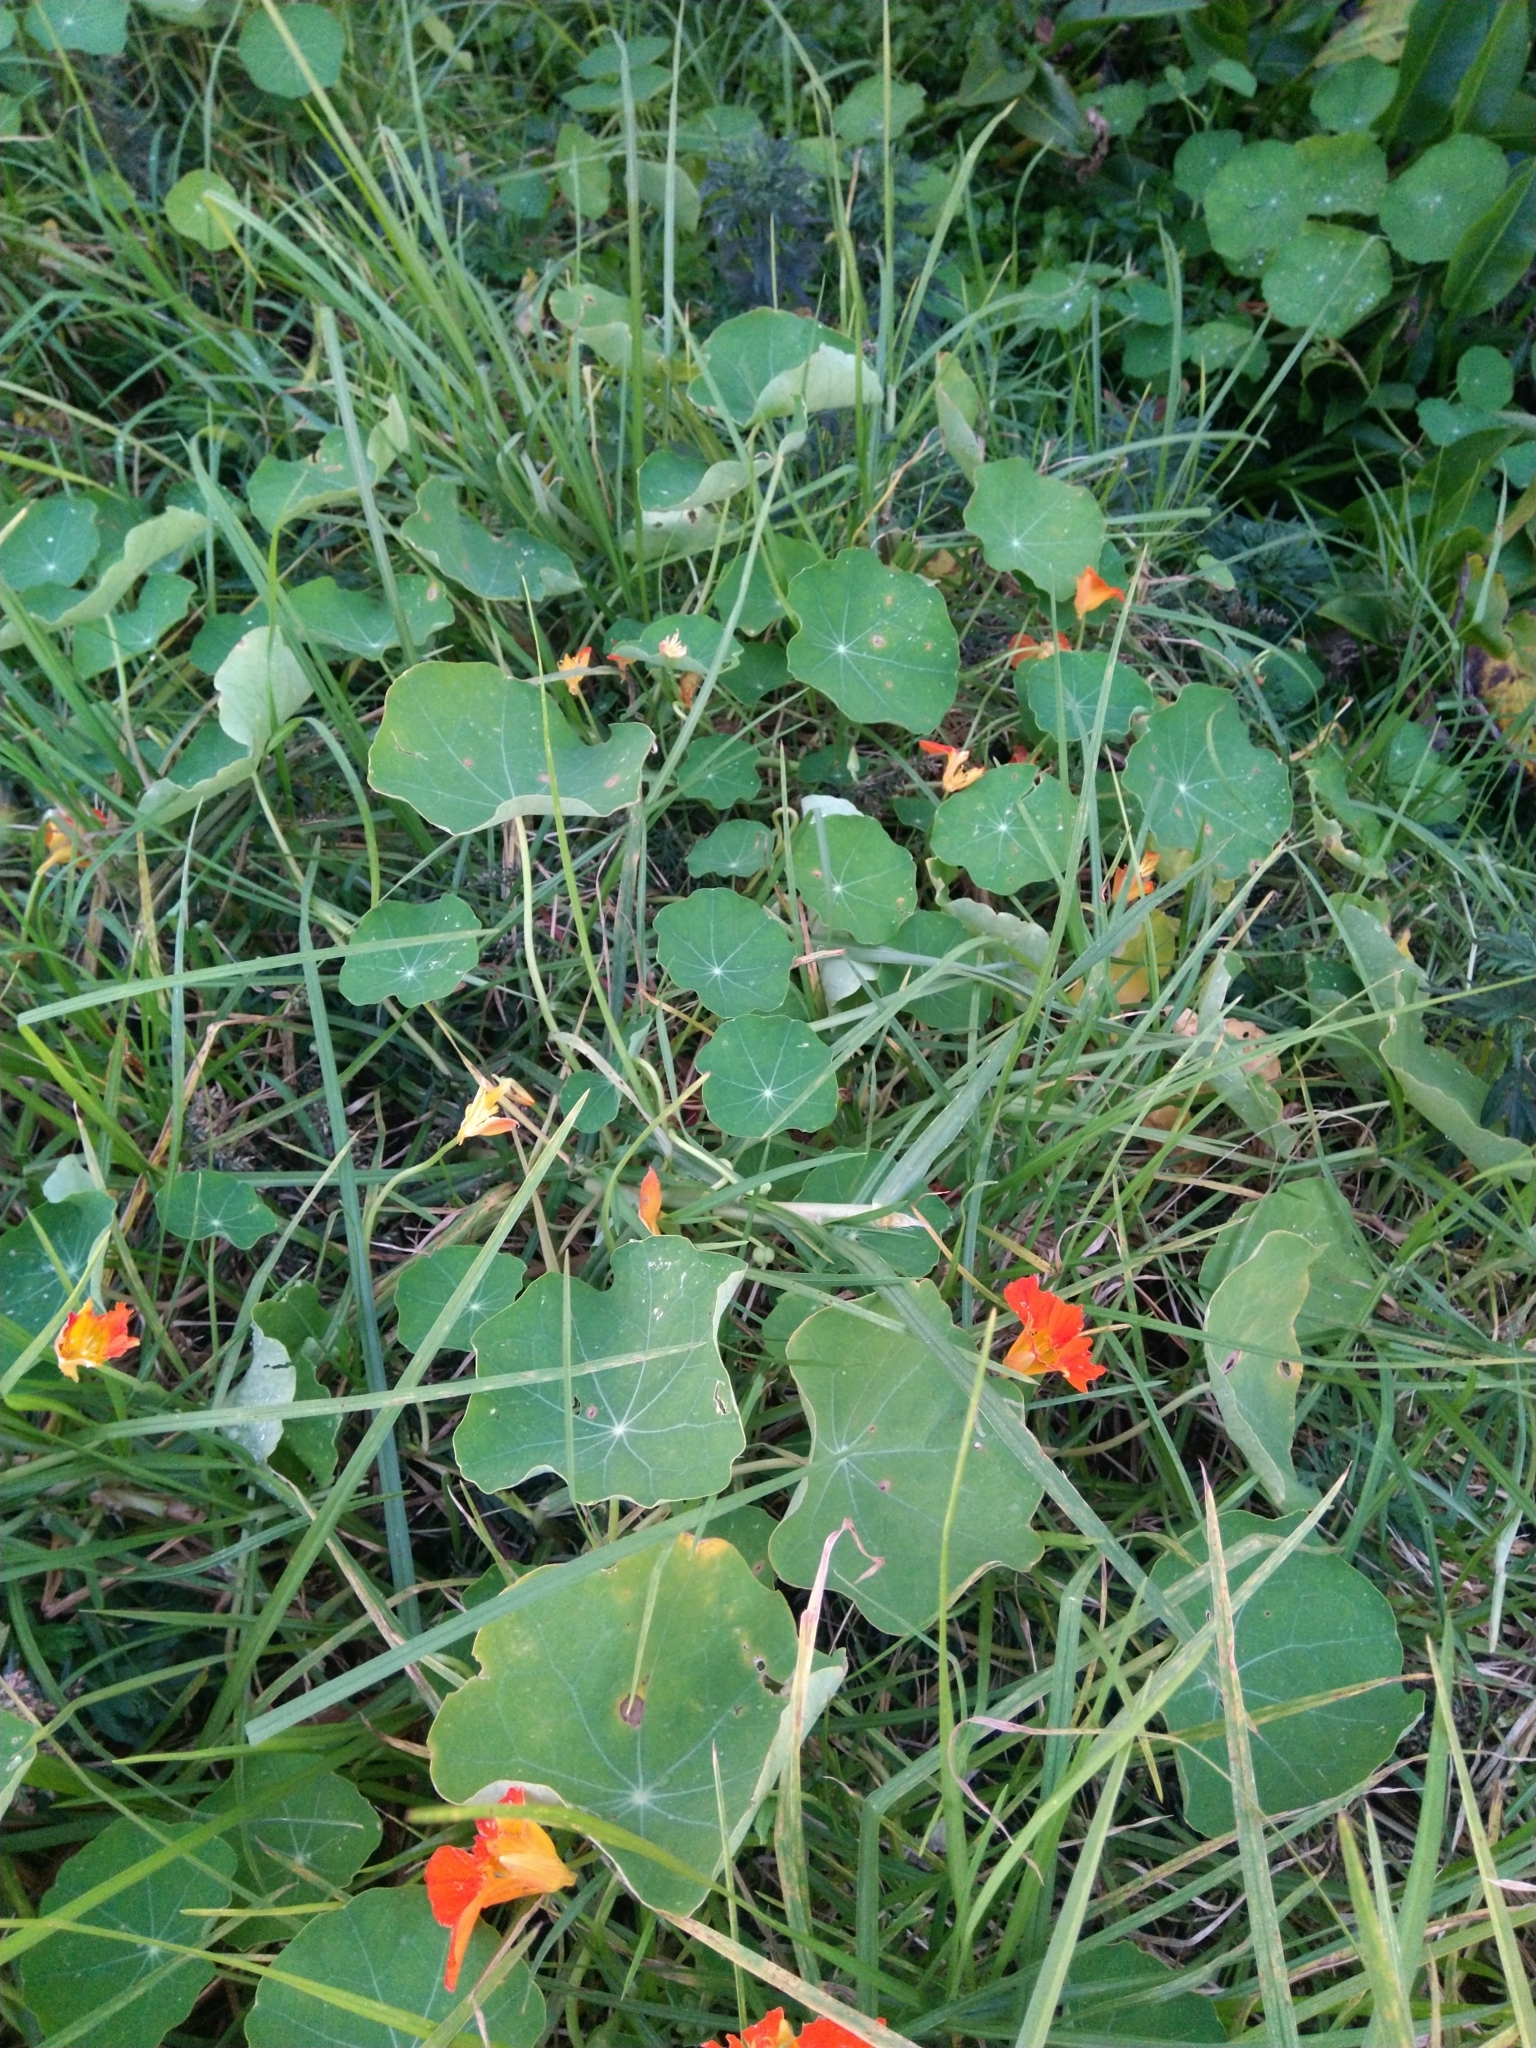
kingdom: Plantae
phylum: Tracheophyta
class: Magnoliopsida
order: Brassicales
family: Tropaeolaceae
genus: Tropaeolum
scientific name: Tropaeolum majus
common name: Nasturtium
